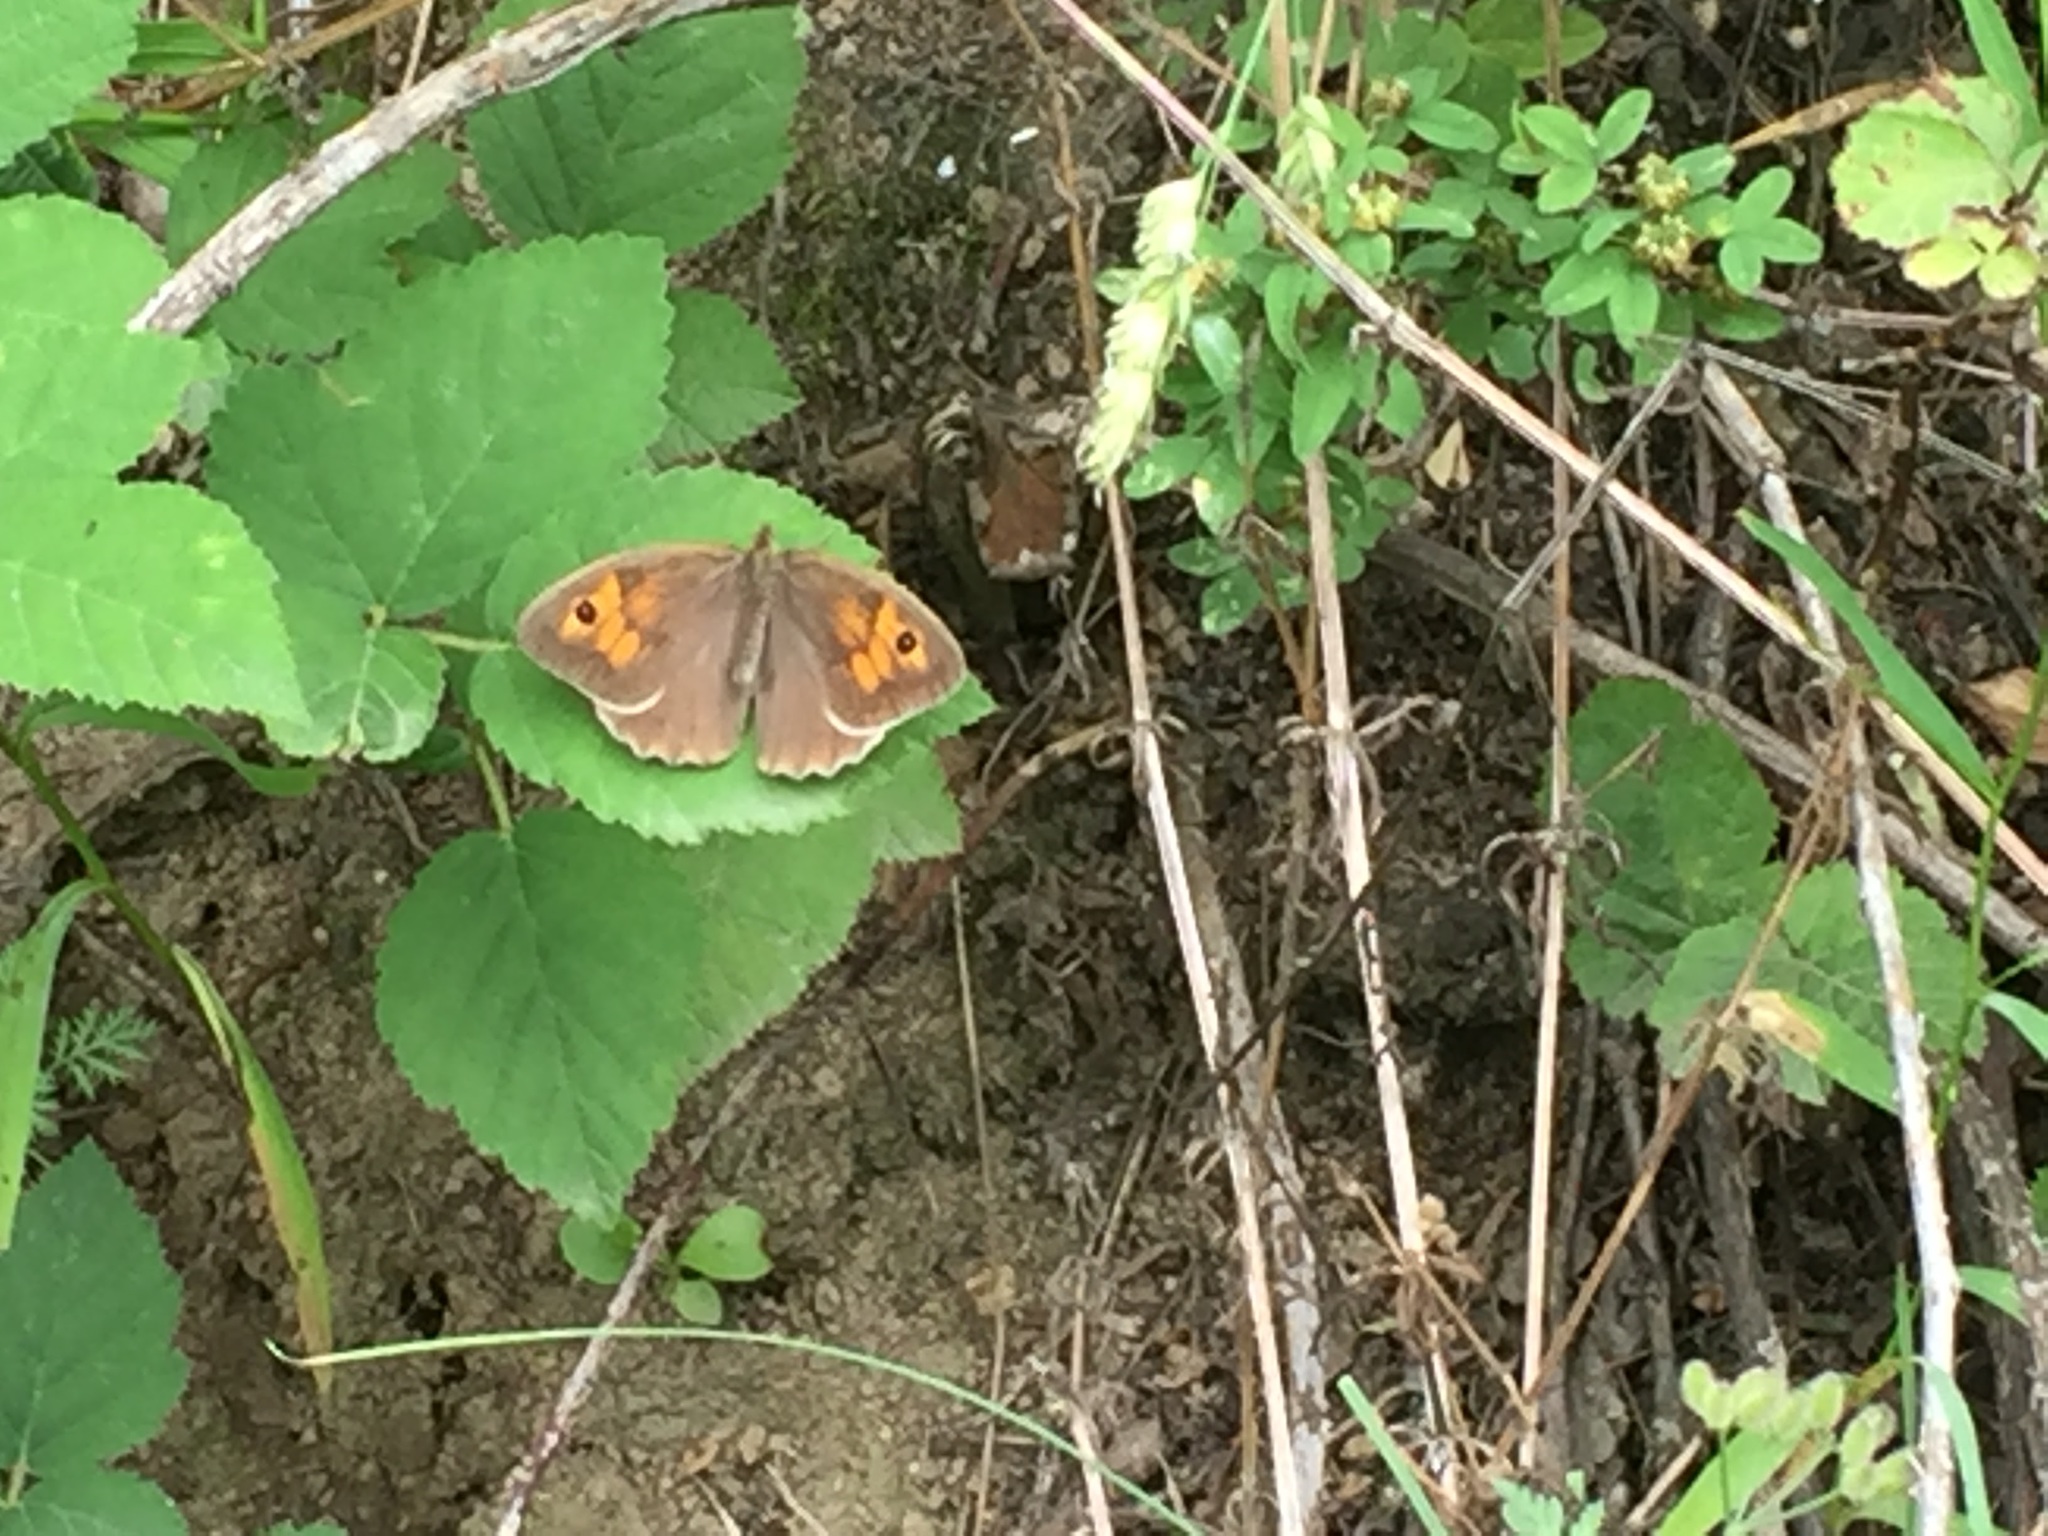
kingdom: Animalia
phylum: Arthropoda
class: Insecta
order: Lepidoptera
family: Nymphalidae
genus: Maniola
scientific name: Maniola jurtina
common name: Meadow brown
